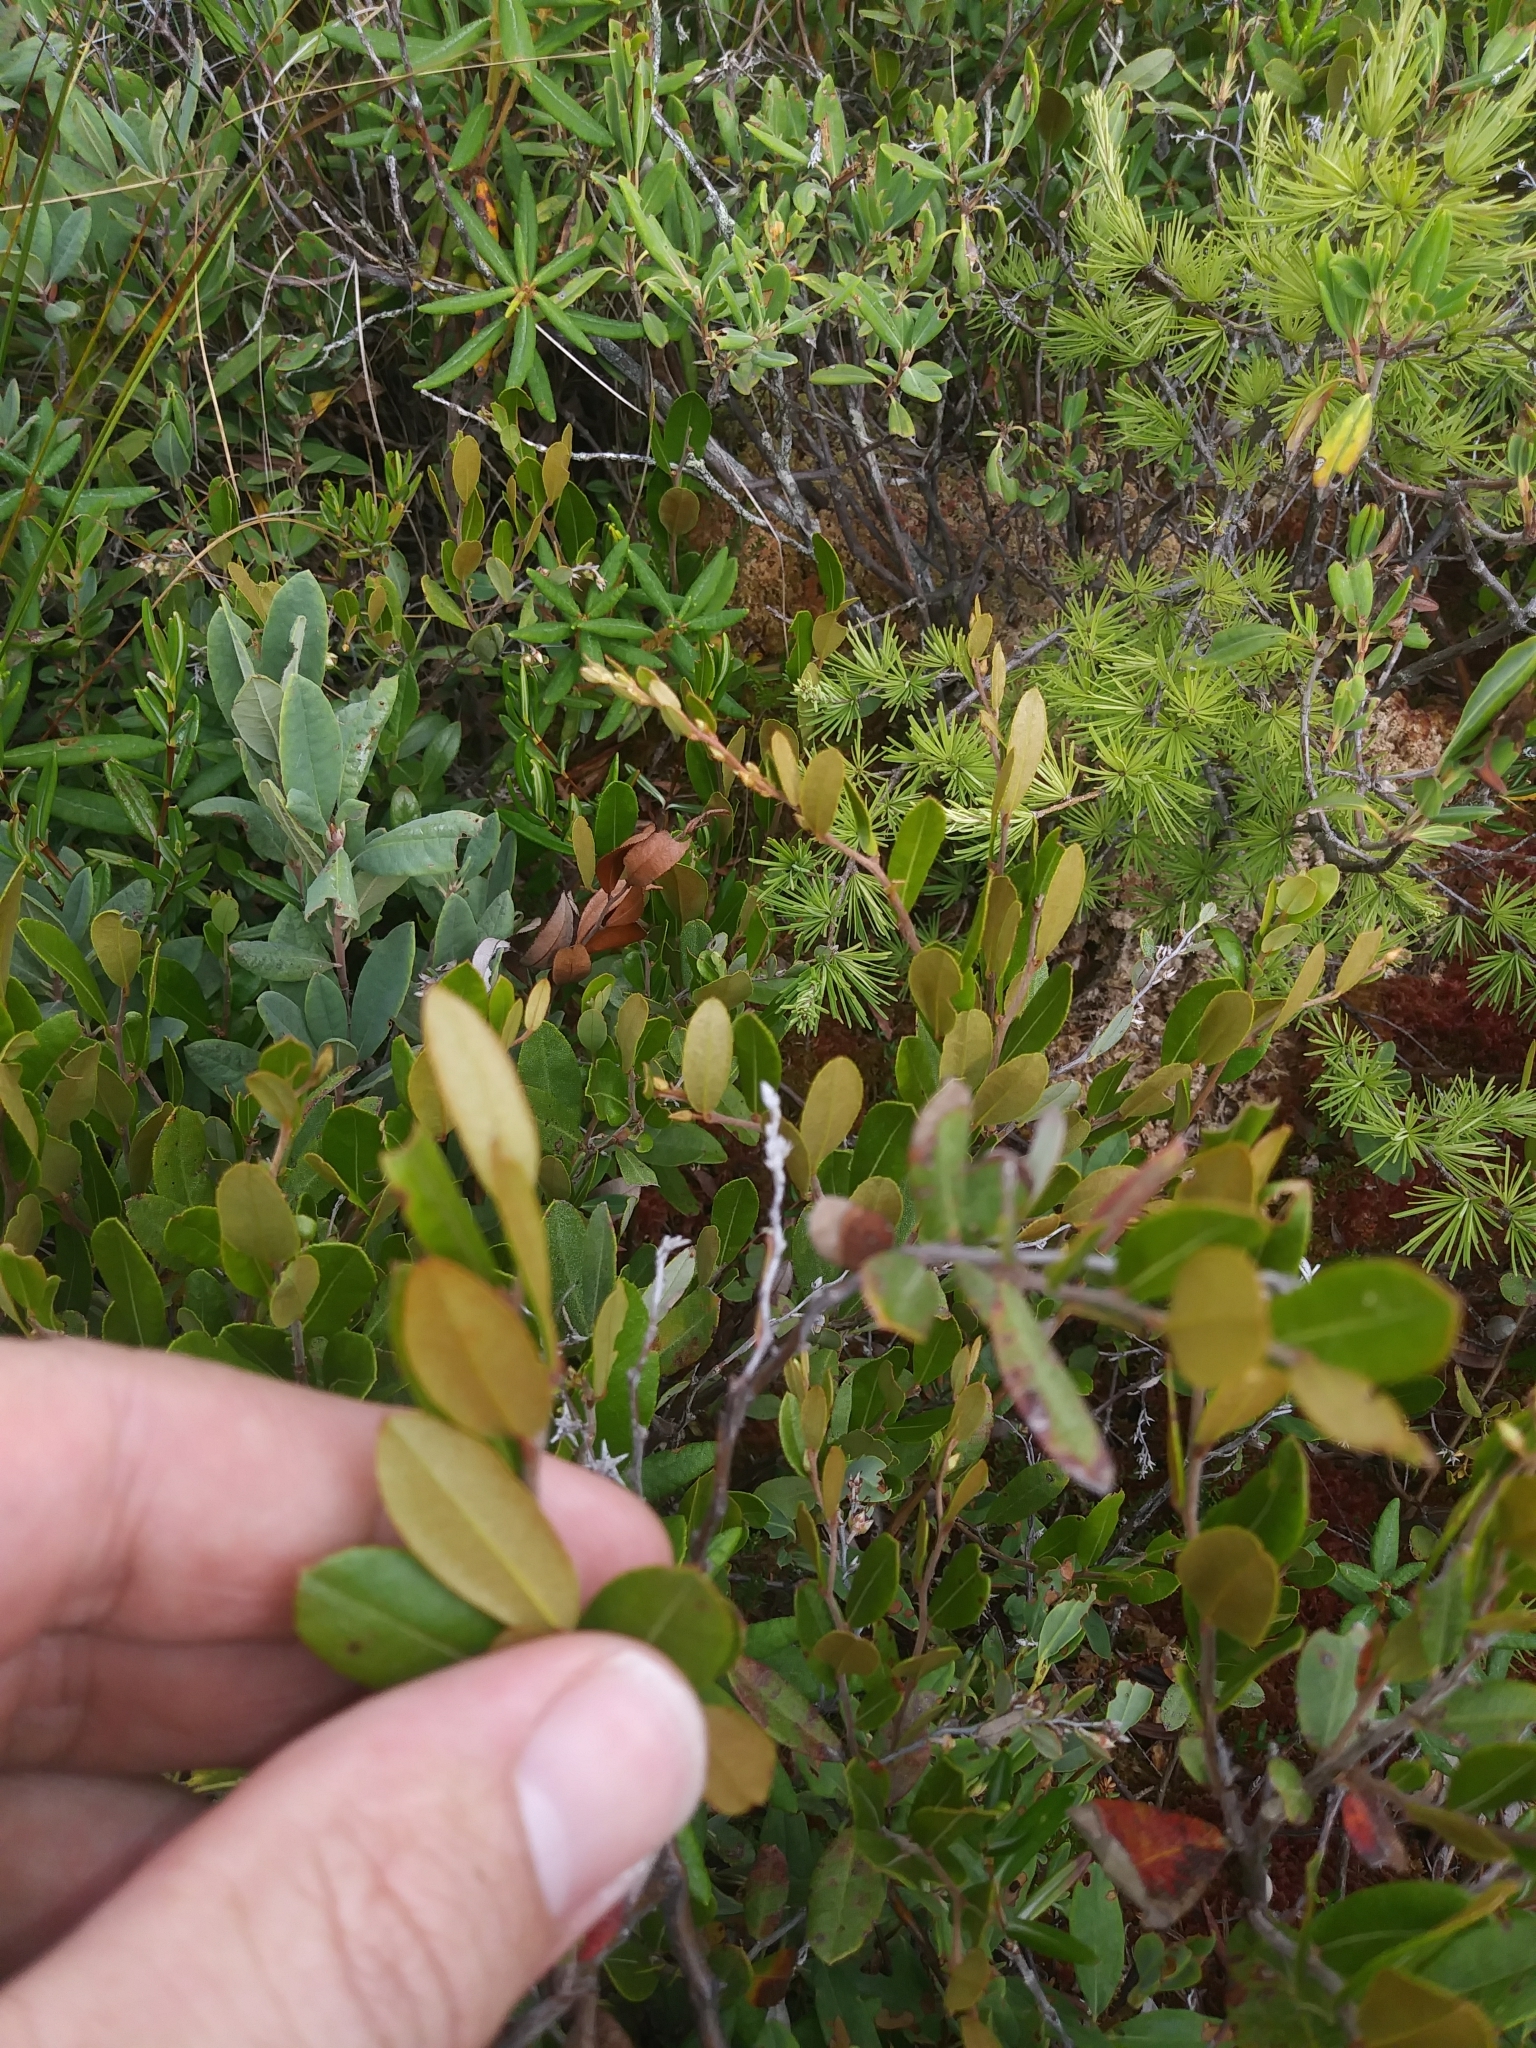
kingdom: Plantae
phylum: Tracheophyta
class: Magnoliopsida
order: Ericales
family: Ericaceae
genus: Chamaedaphne
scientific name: Chamaedaphne calyculata
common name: Leatherleaf
